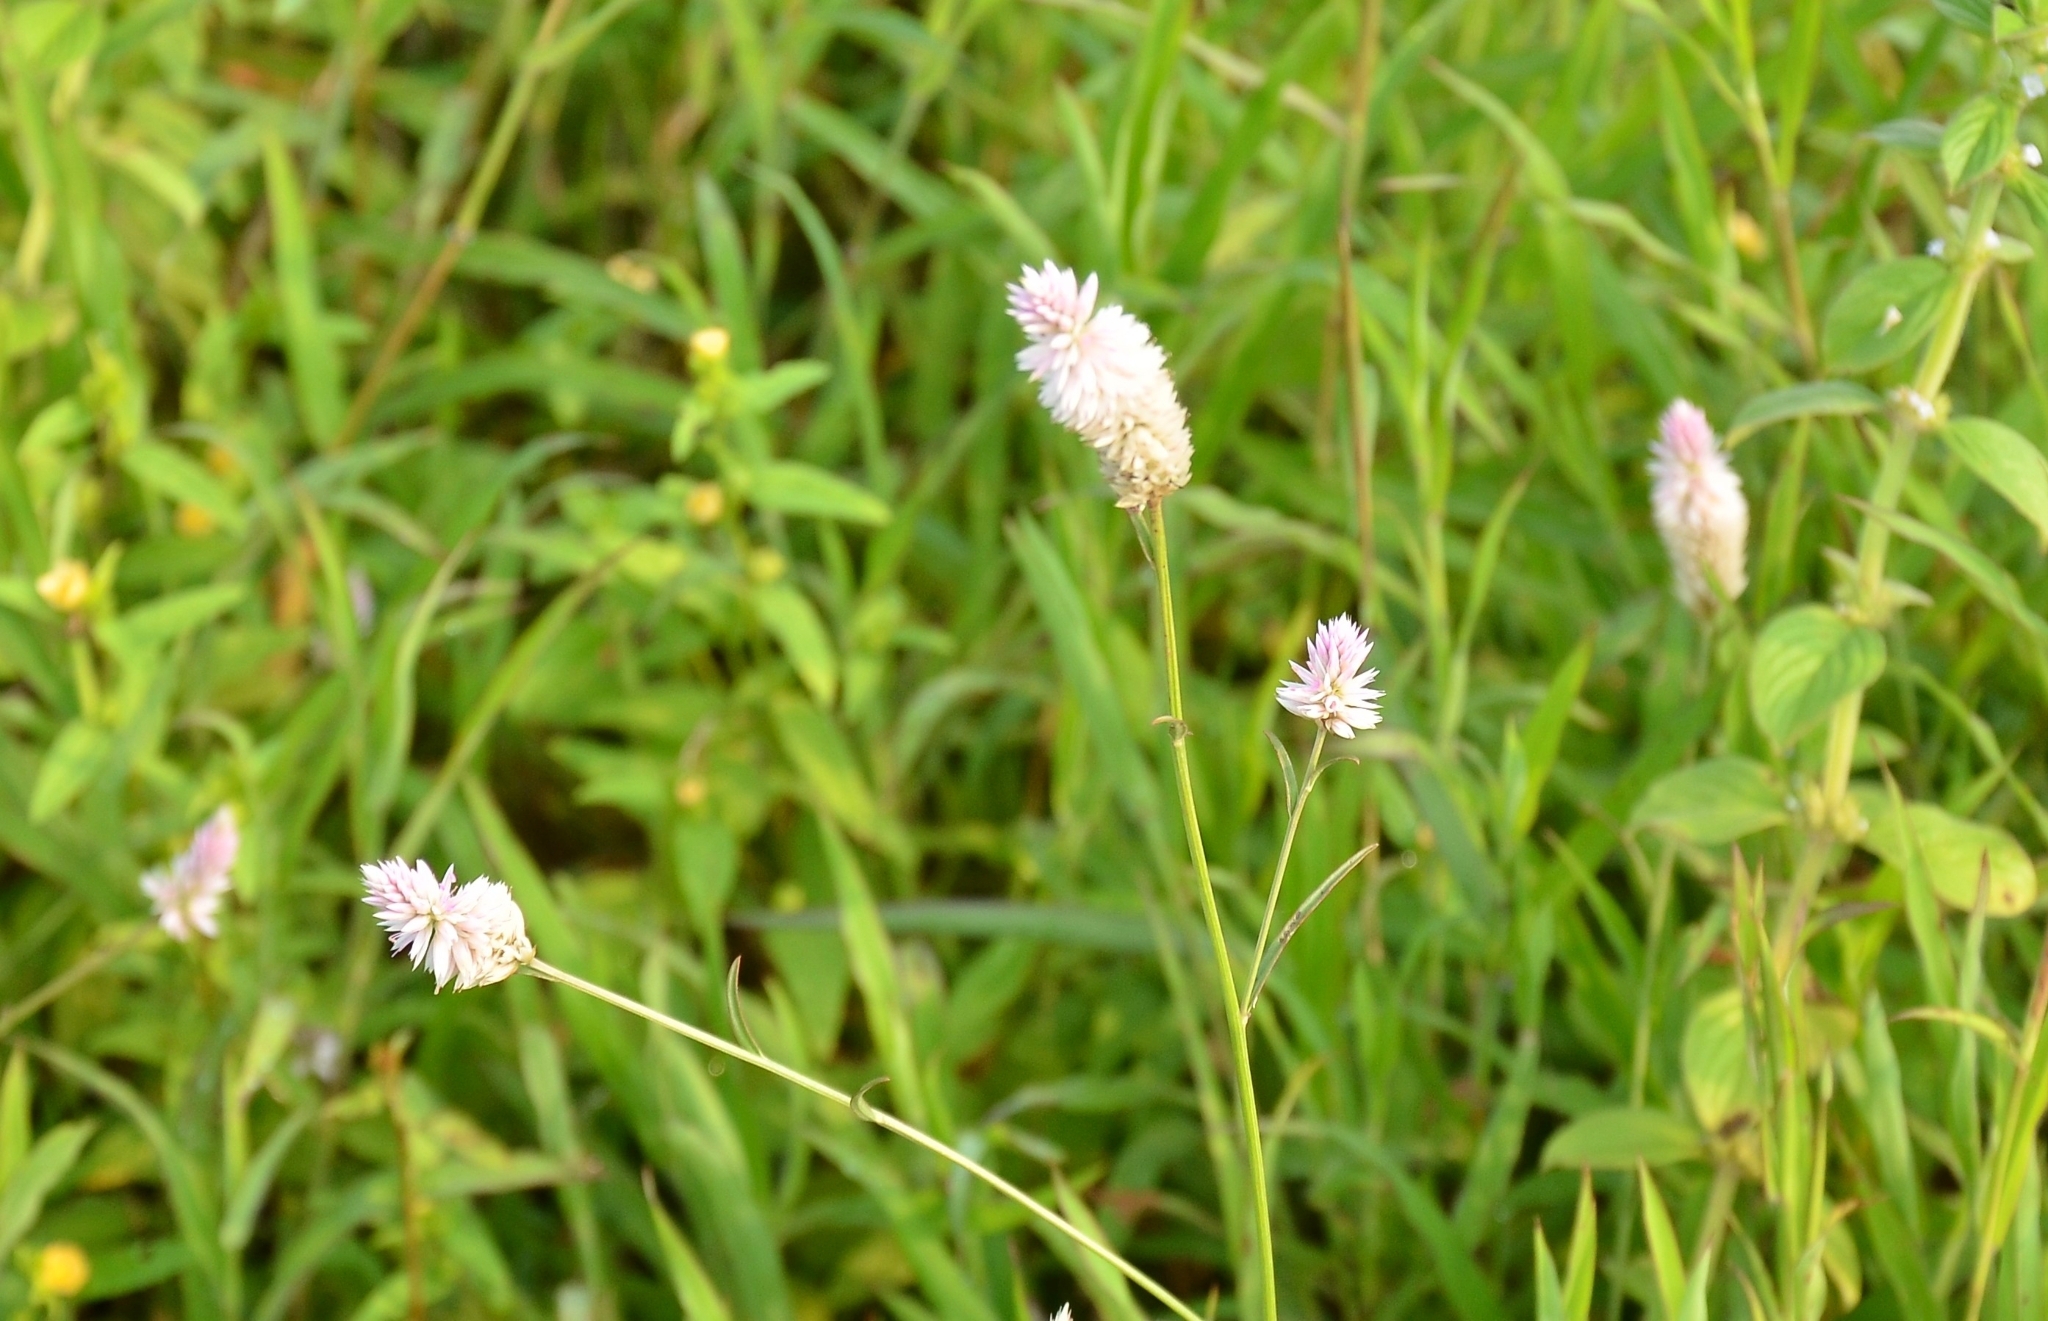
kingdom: Plantae
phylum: Tracheophyta
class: Magnoliopsida
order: Caryophyllales
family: Amaranthaceae
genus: Celosia
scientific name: Celosia argentea
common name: Feather cockscomb
